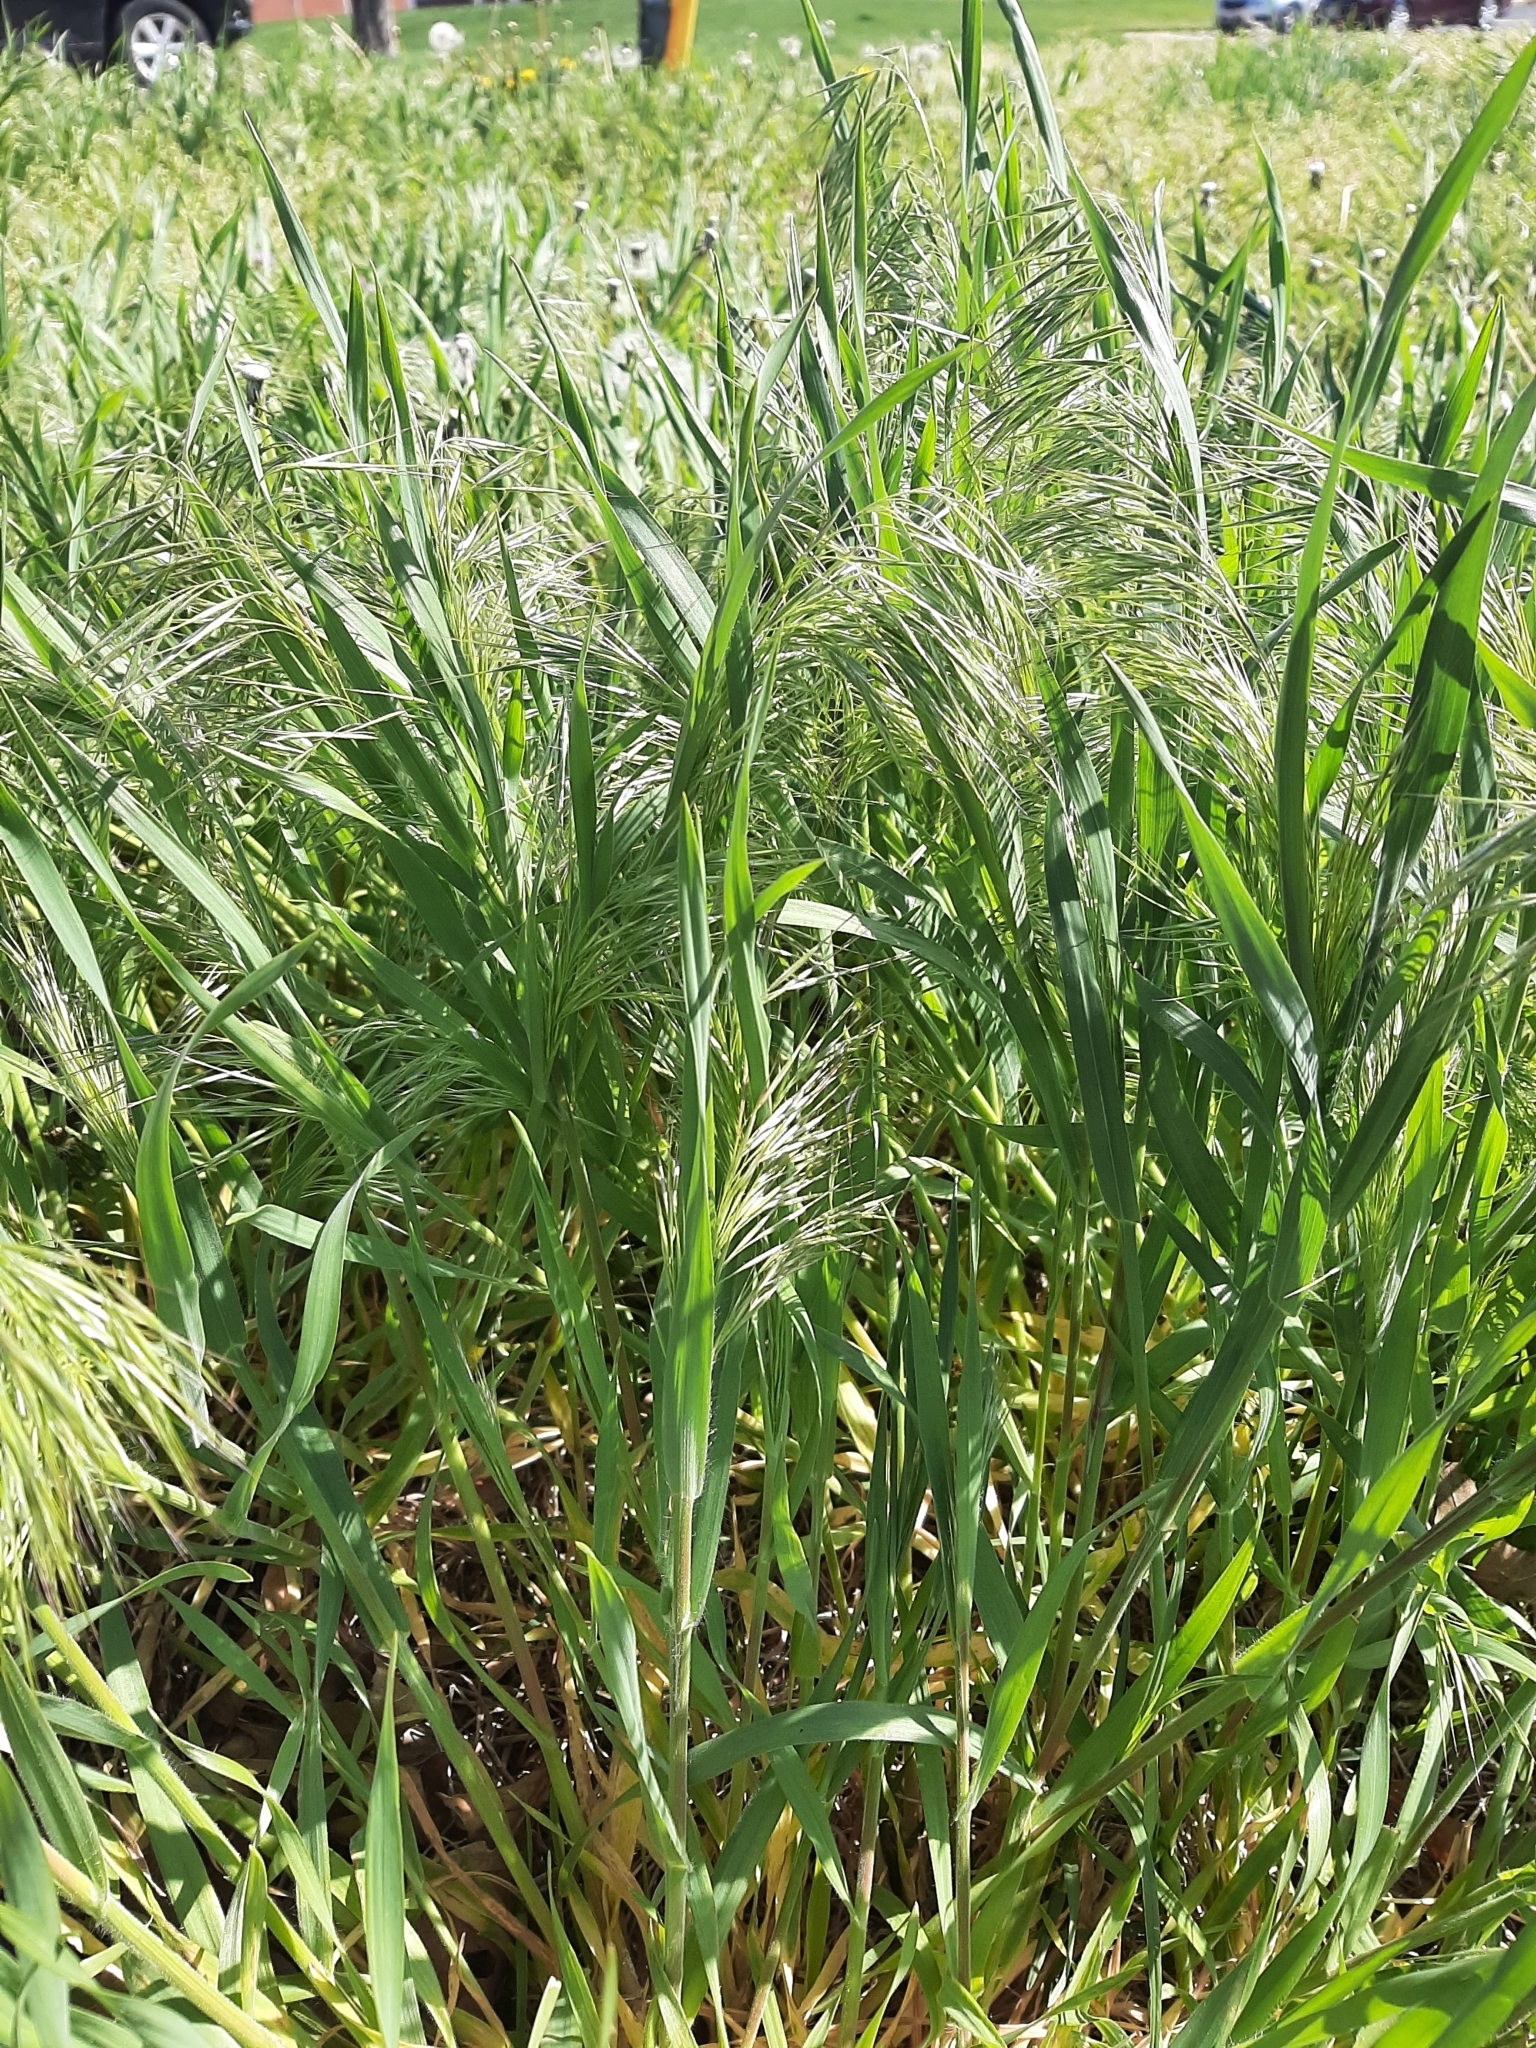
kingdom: Plantae
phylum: Tracheophyta
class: Liliopsida
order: Poales
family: Poaceae
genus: Bromus
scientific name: Bromus tectorum
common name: Cheatgrass
